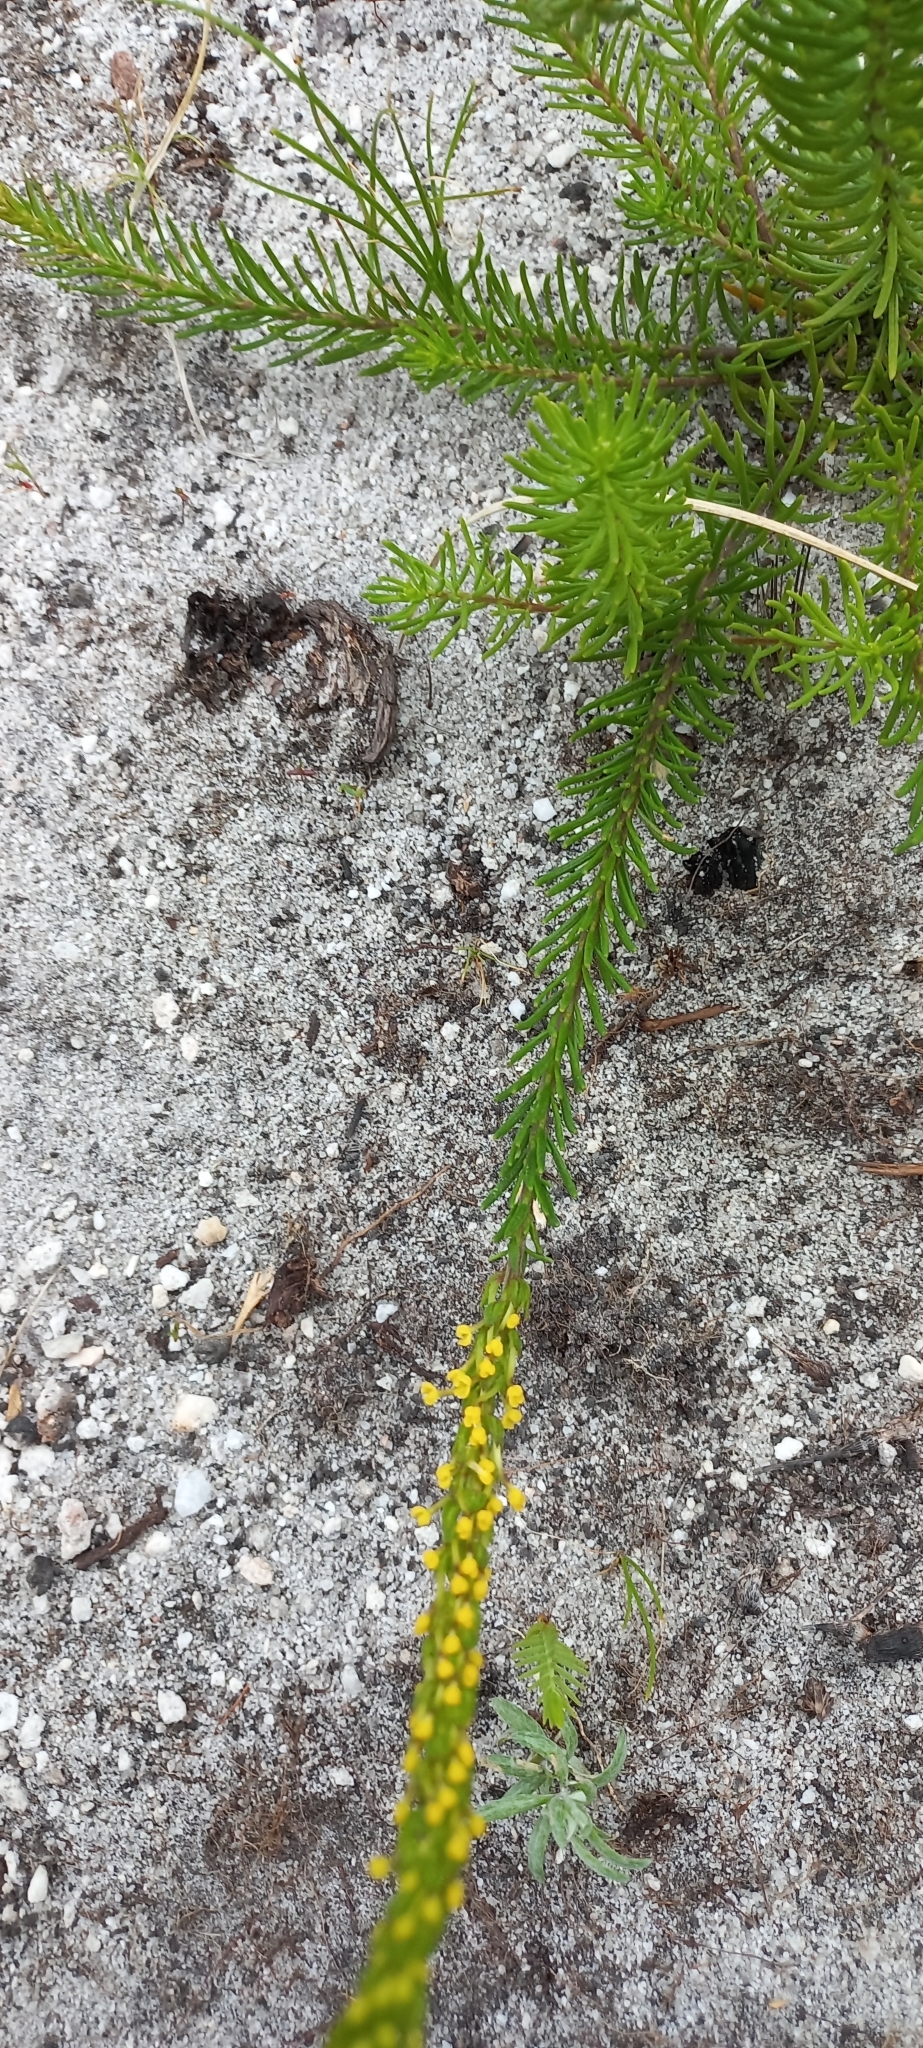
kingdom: Plantae
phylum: Tracheophyta
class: Magnoliopsida
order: Lamiales
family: Scrophulariaceae
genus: Microdon
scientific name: Microdon dubius
